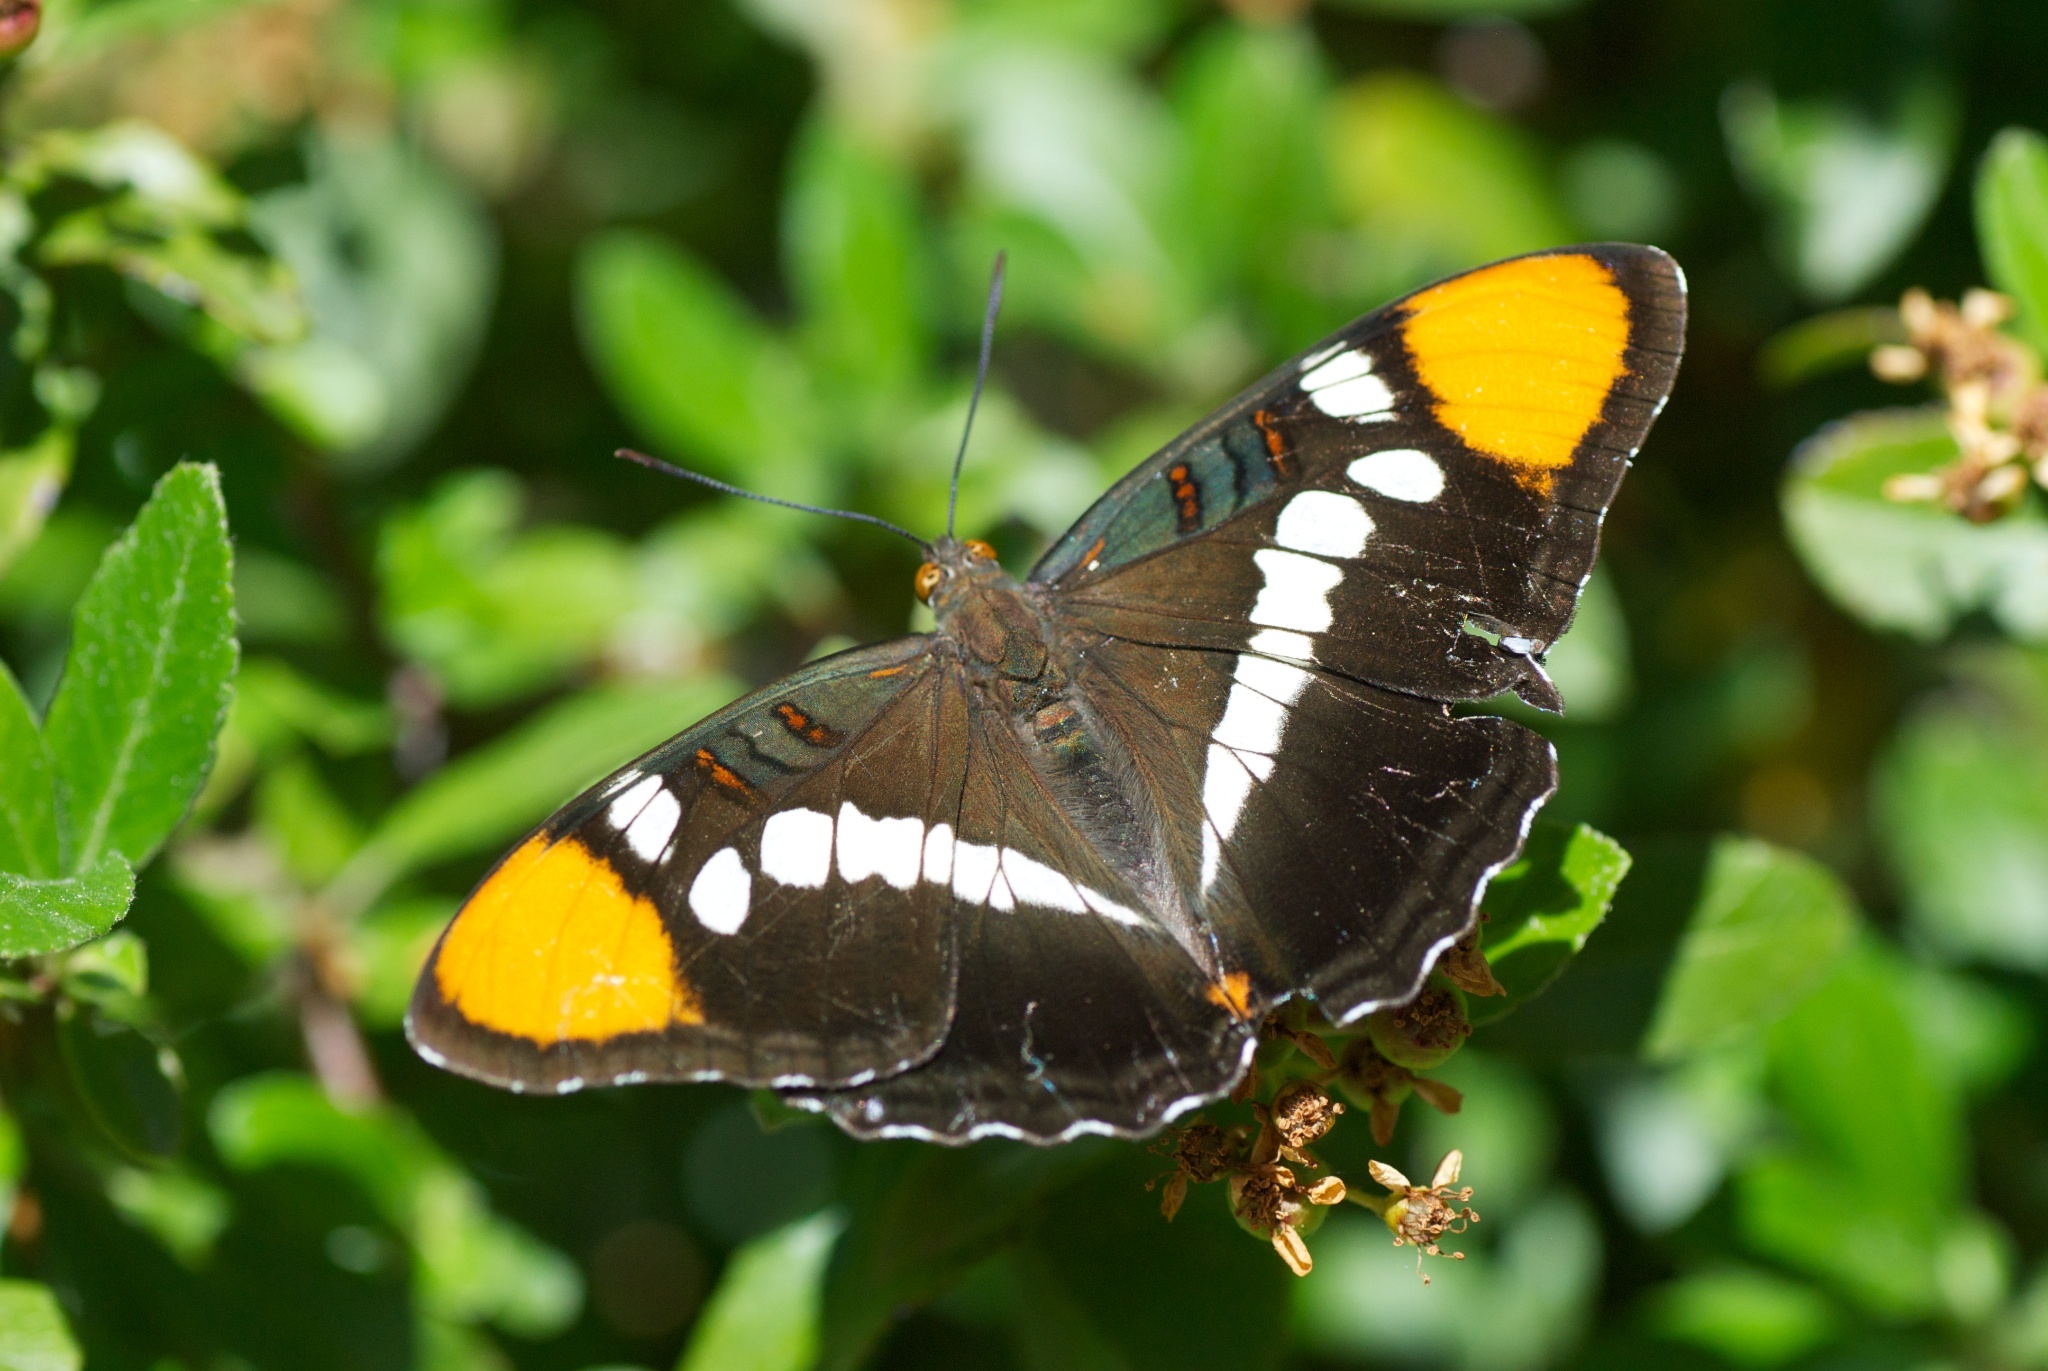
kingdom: Animalia
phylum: Arthropoda
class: Insecta
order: Lepidoptera
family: Nymphalidae
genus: Limenitis
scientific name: Limenitis bredowii
